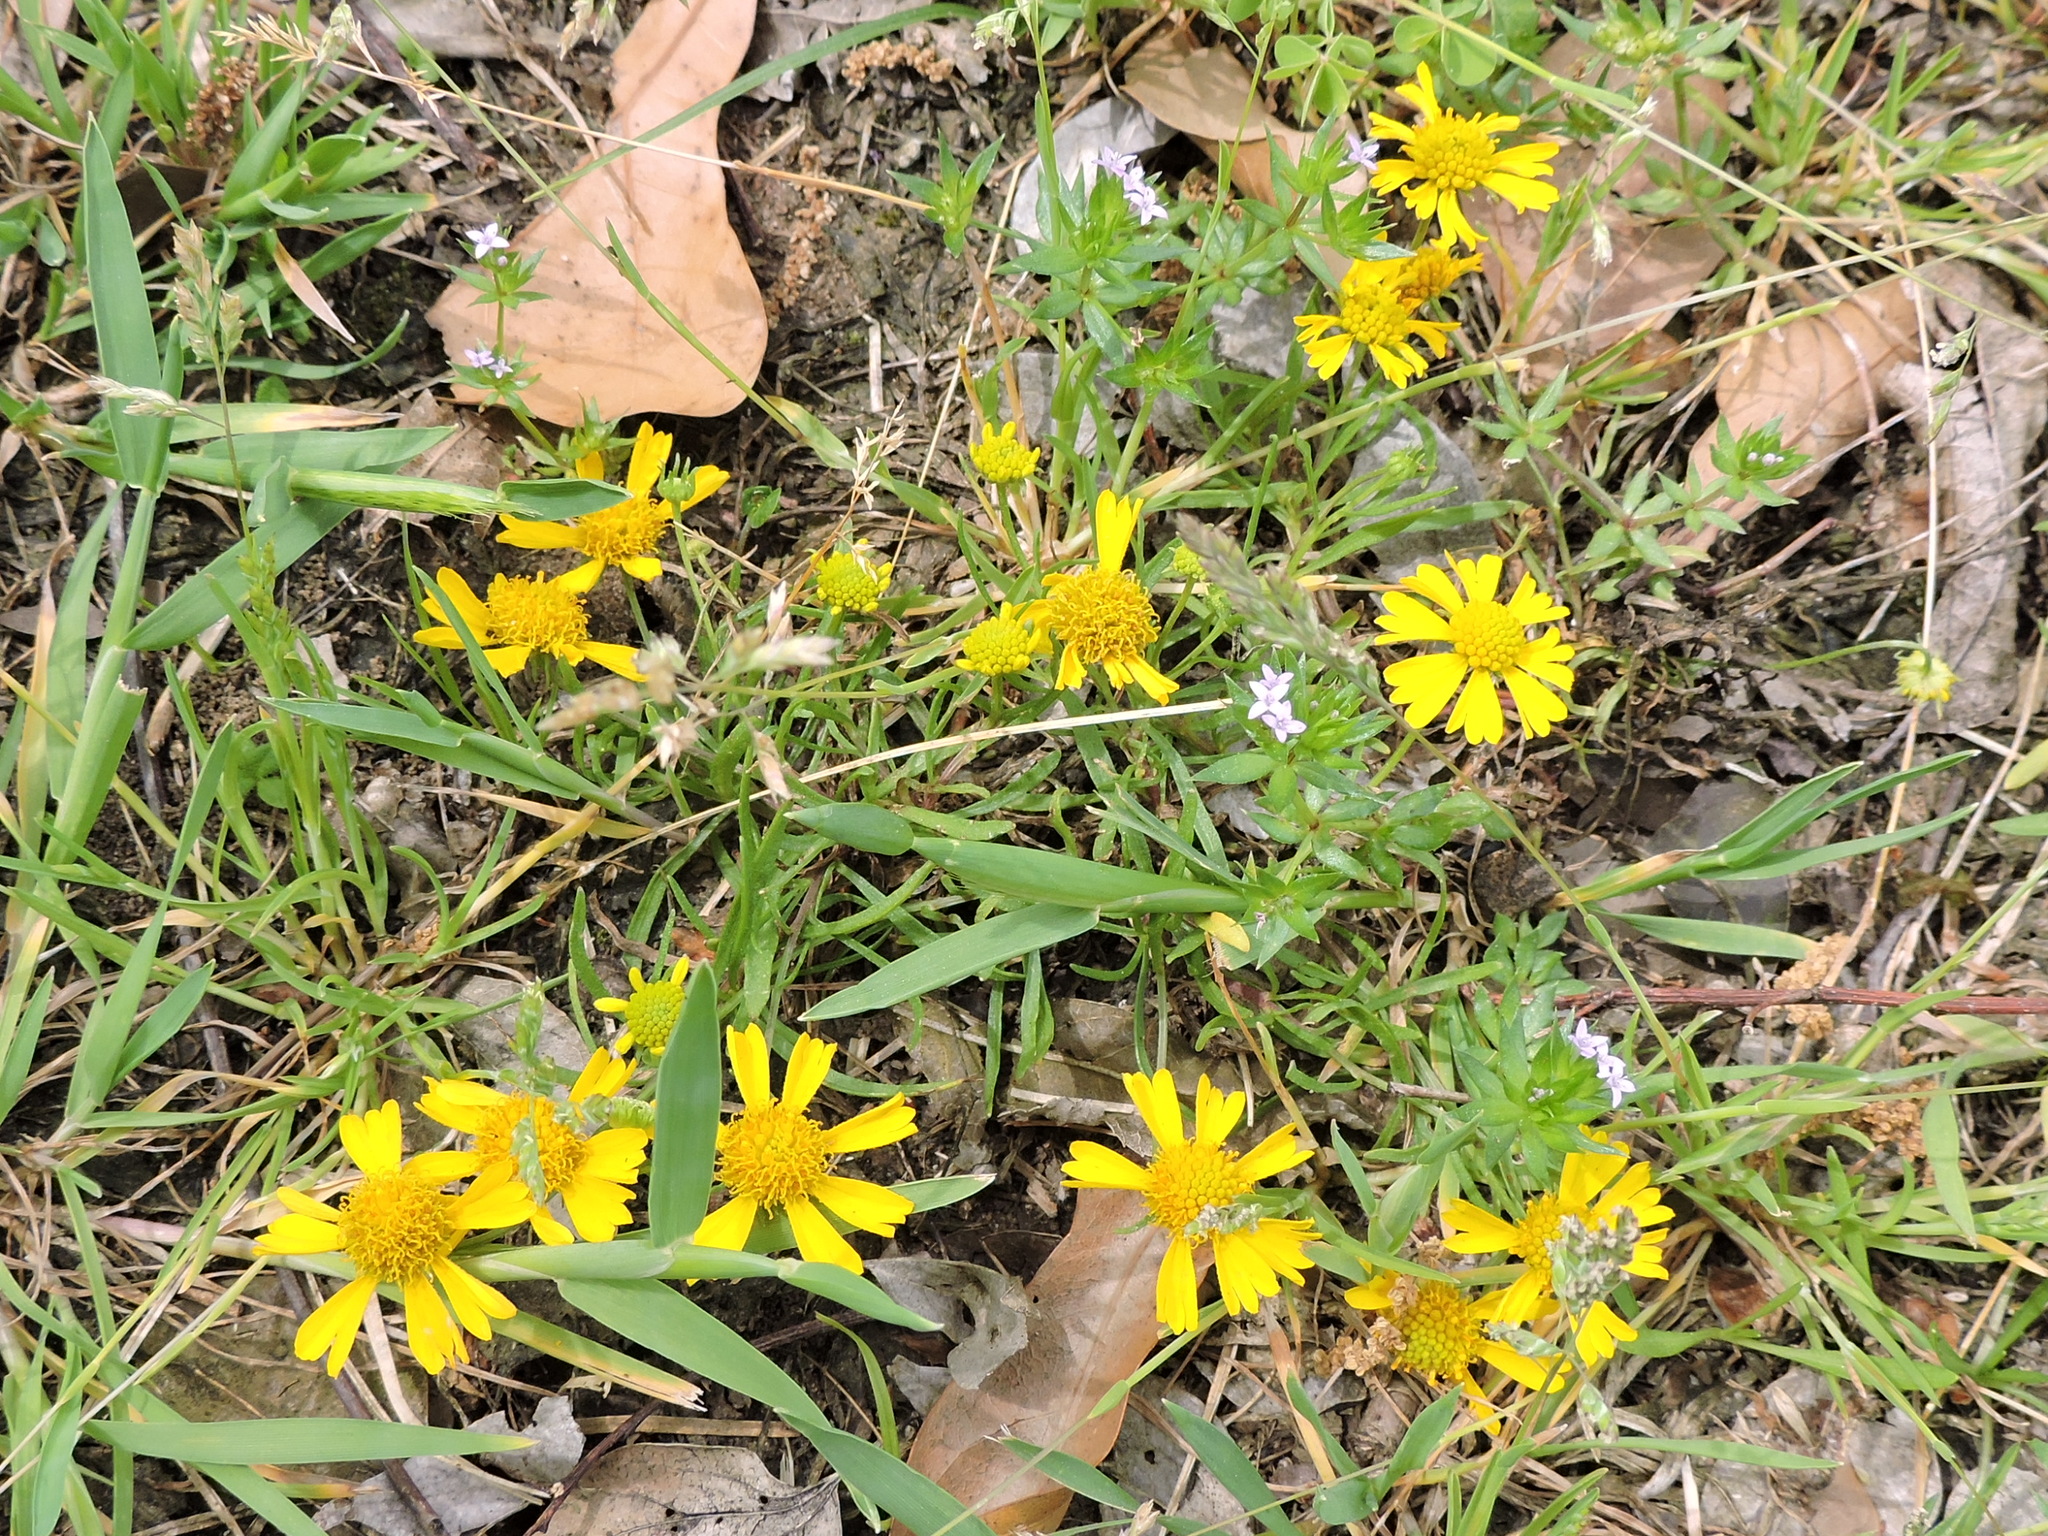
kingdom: Plantae
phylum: Tracheophyta
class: Magnoliopsida
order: Asterales
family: Asteraceae
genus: Helenium
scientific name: Helenium amarum
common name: Bitter sneezeweed
